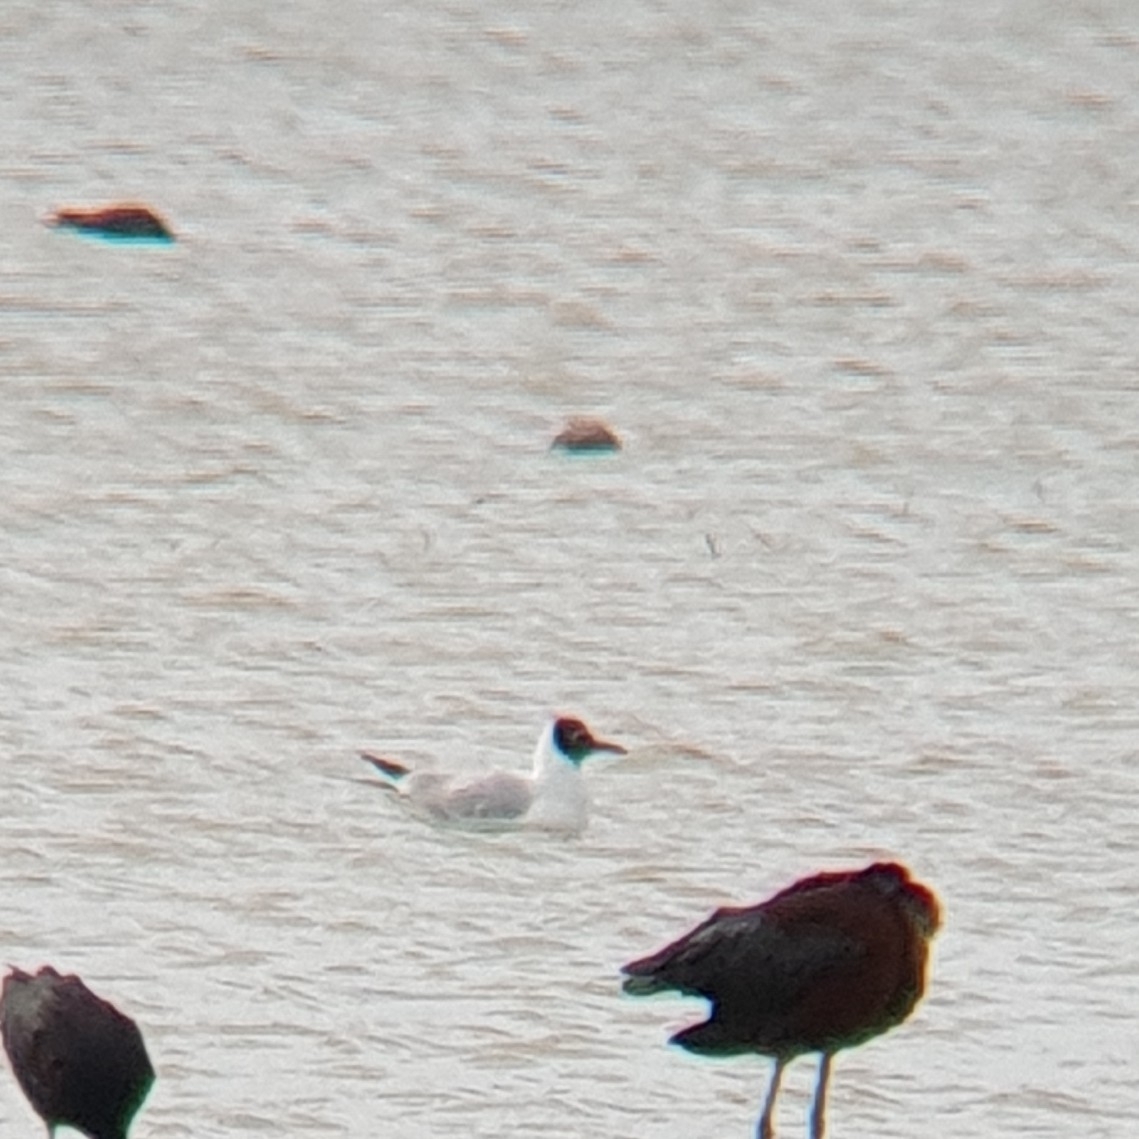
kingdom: Animalia
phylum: Chordata
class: Aves
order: Charadriiformes
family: Laridae
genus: Chroicocephalus
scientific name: Chroicocephalus ridibundus
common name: Black-headed gull
